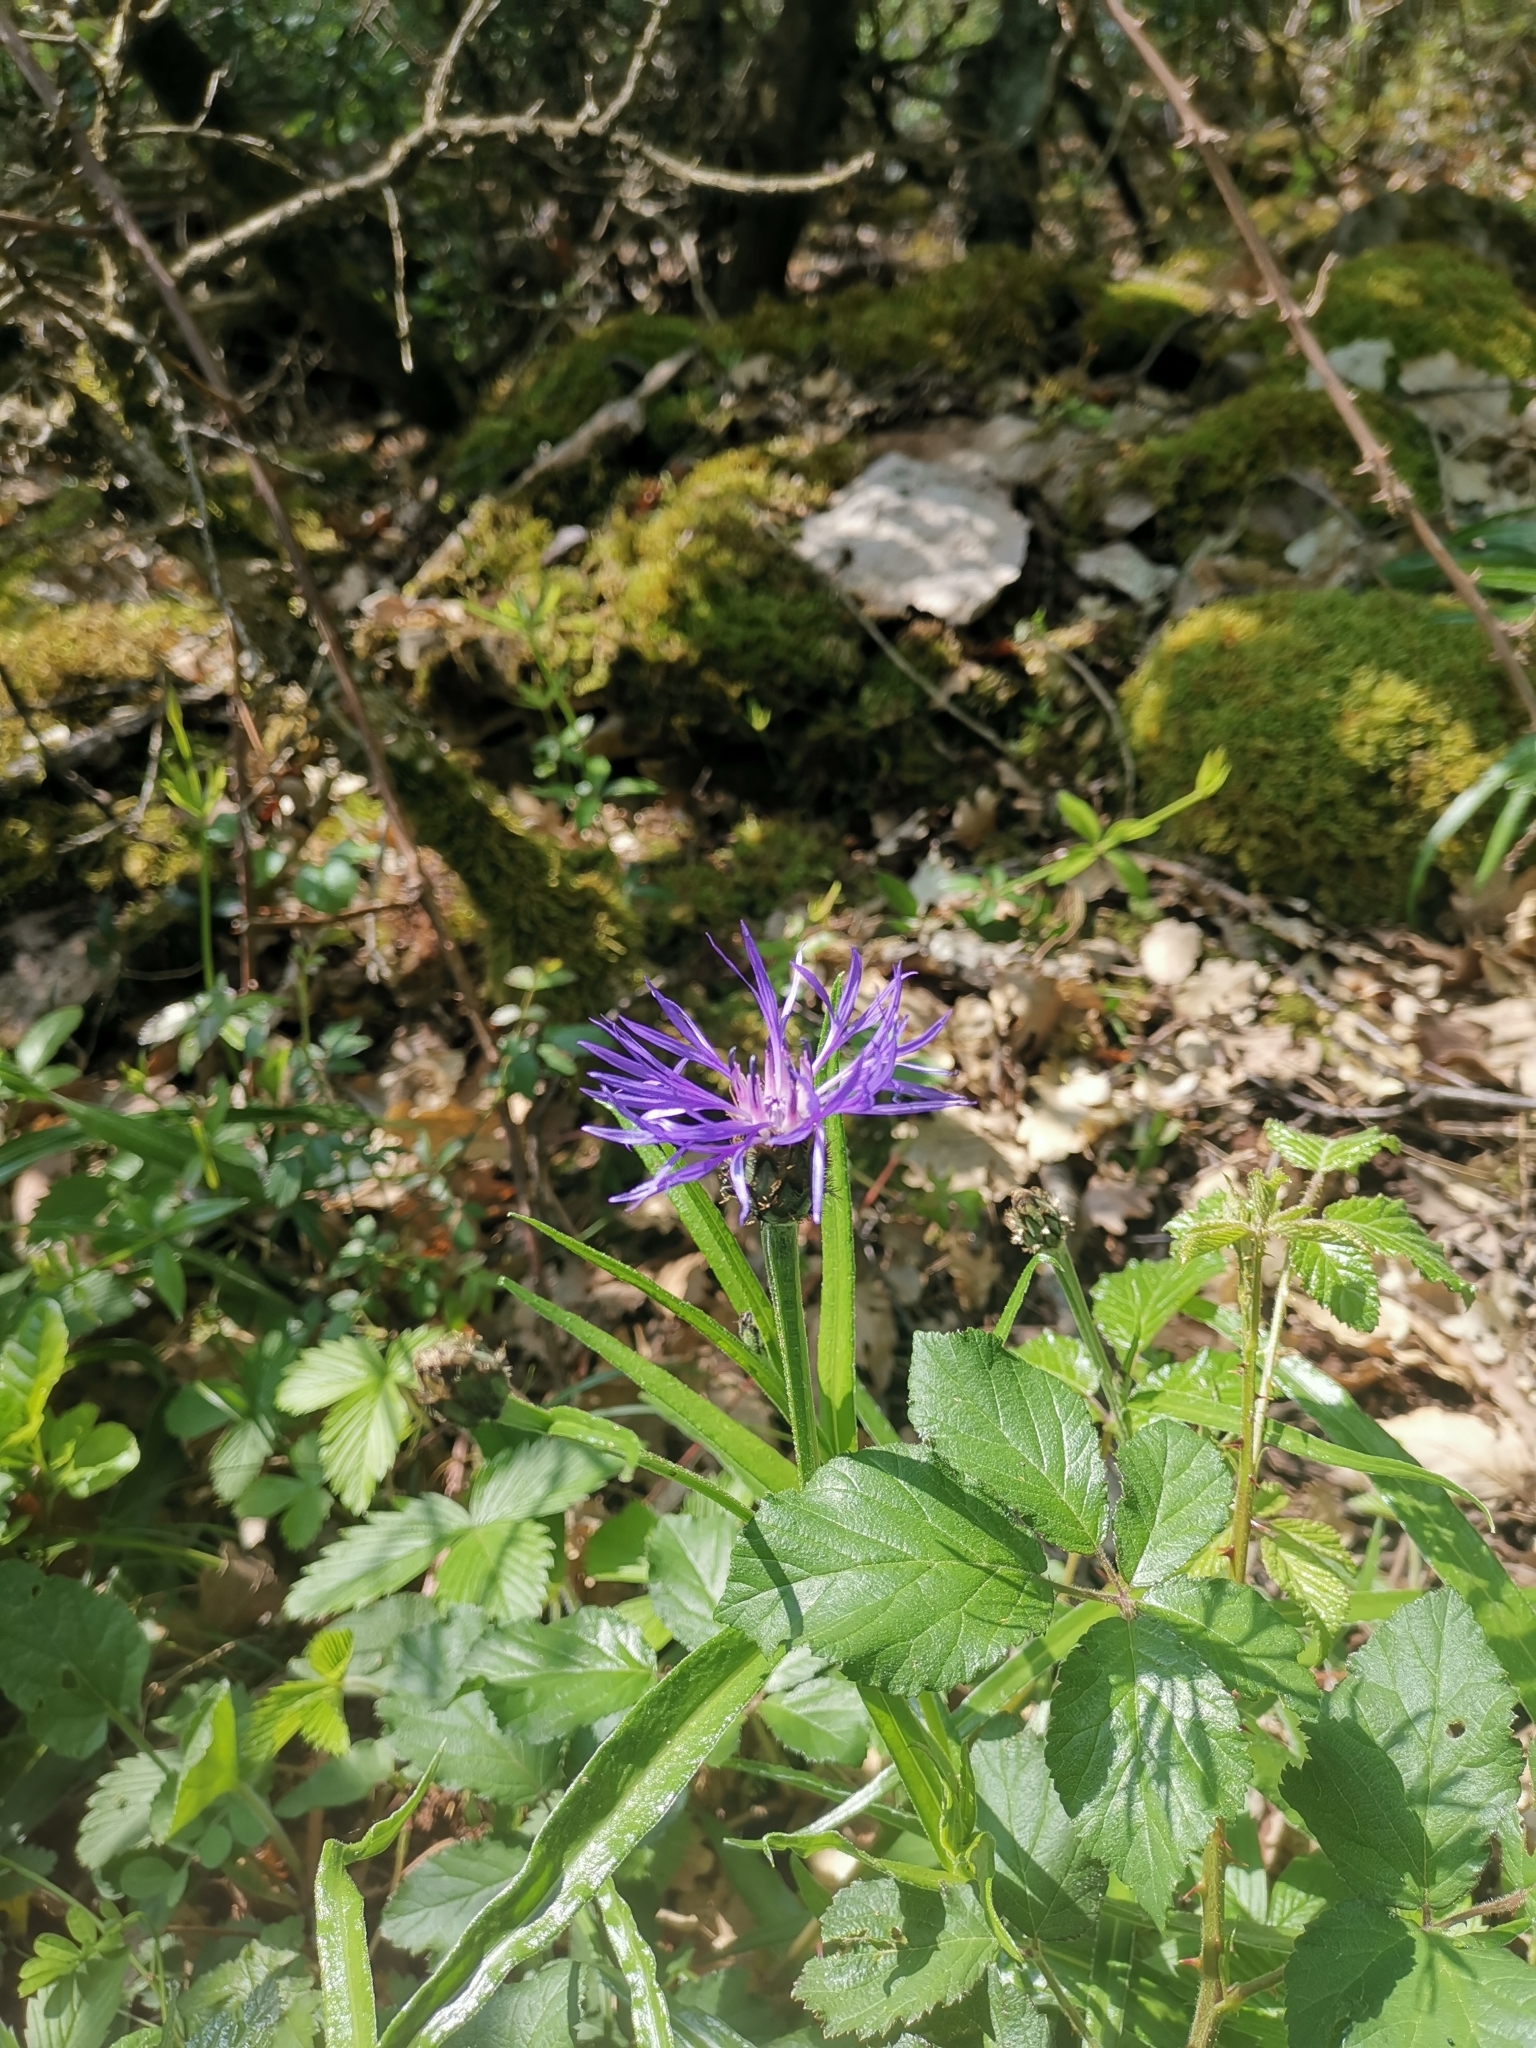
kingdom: Plantae
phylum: Tracheophyta
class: Magnoliopsida
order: Asterales
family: Asteraceae
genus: Centaurea
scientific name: Centaurea lugdunensis
